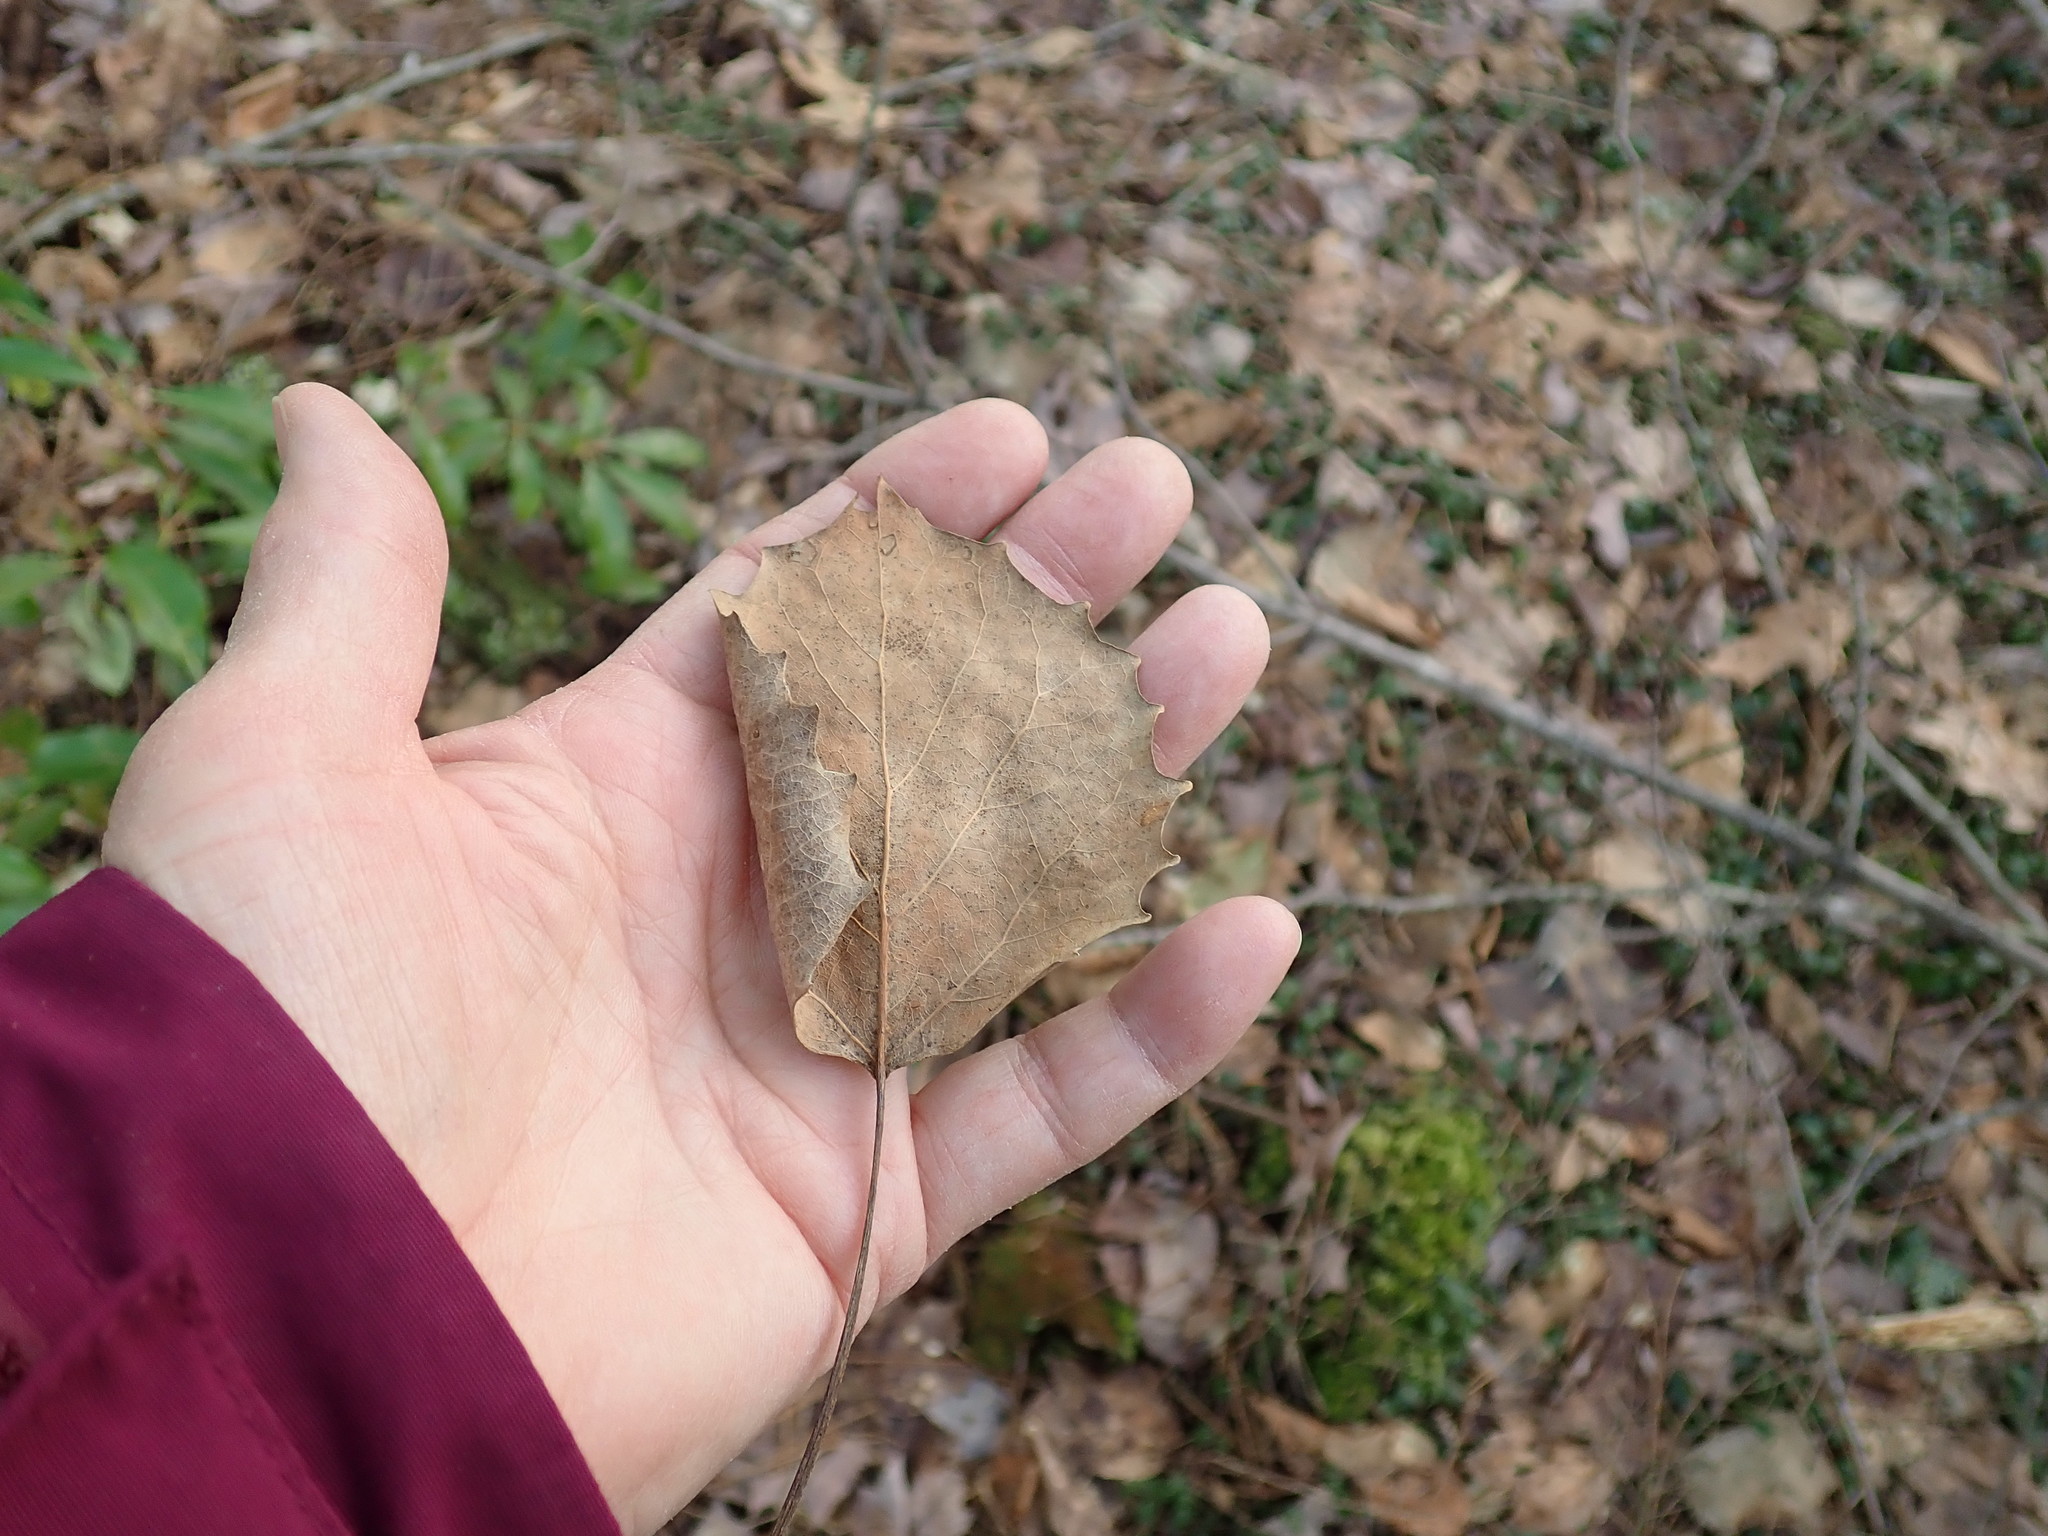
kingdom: Plantae
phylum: Tracheophyta
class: Magnoliopsida
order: Malpighiales
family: Salicaceae
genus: Populus
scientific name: Populus grandidentata
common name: Bigtooth aspen
